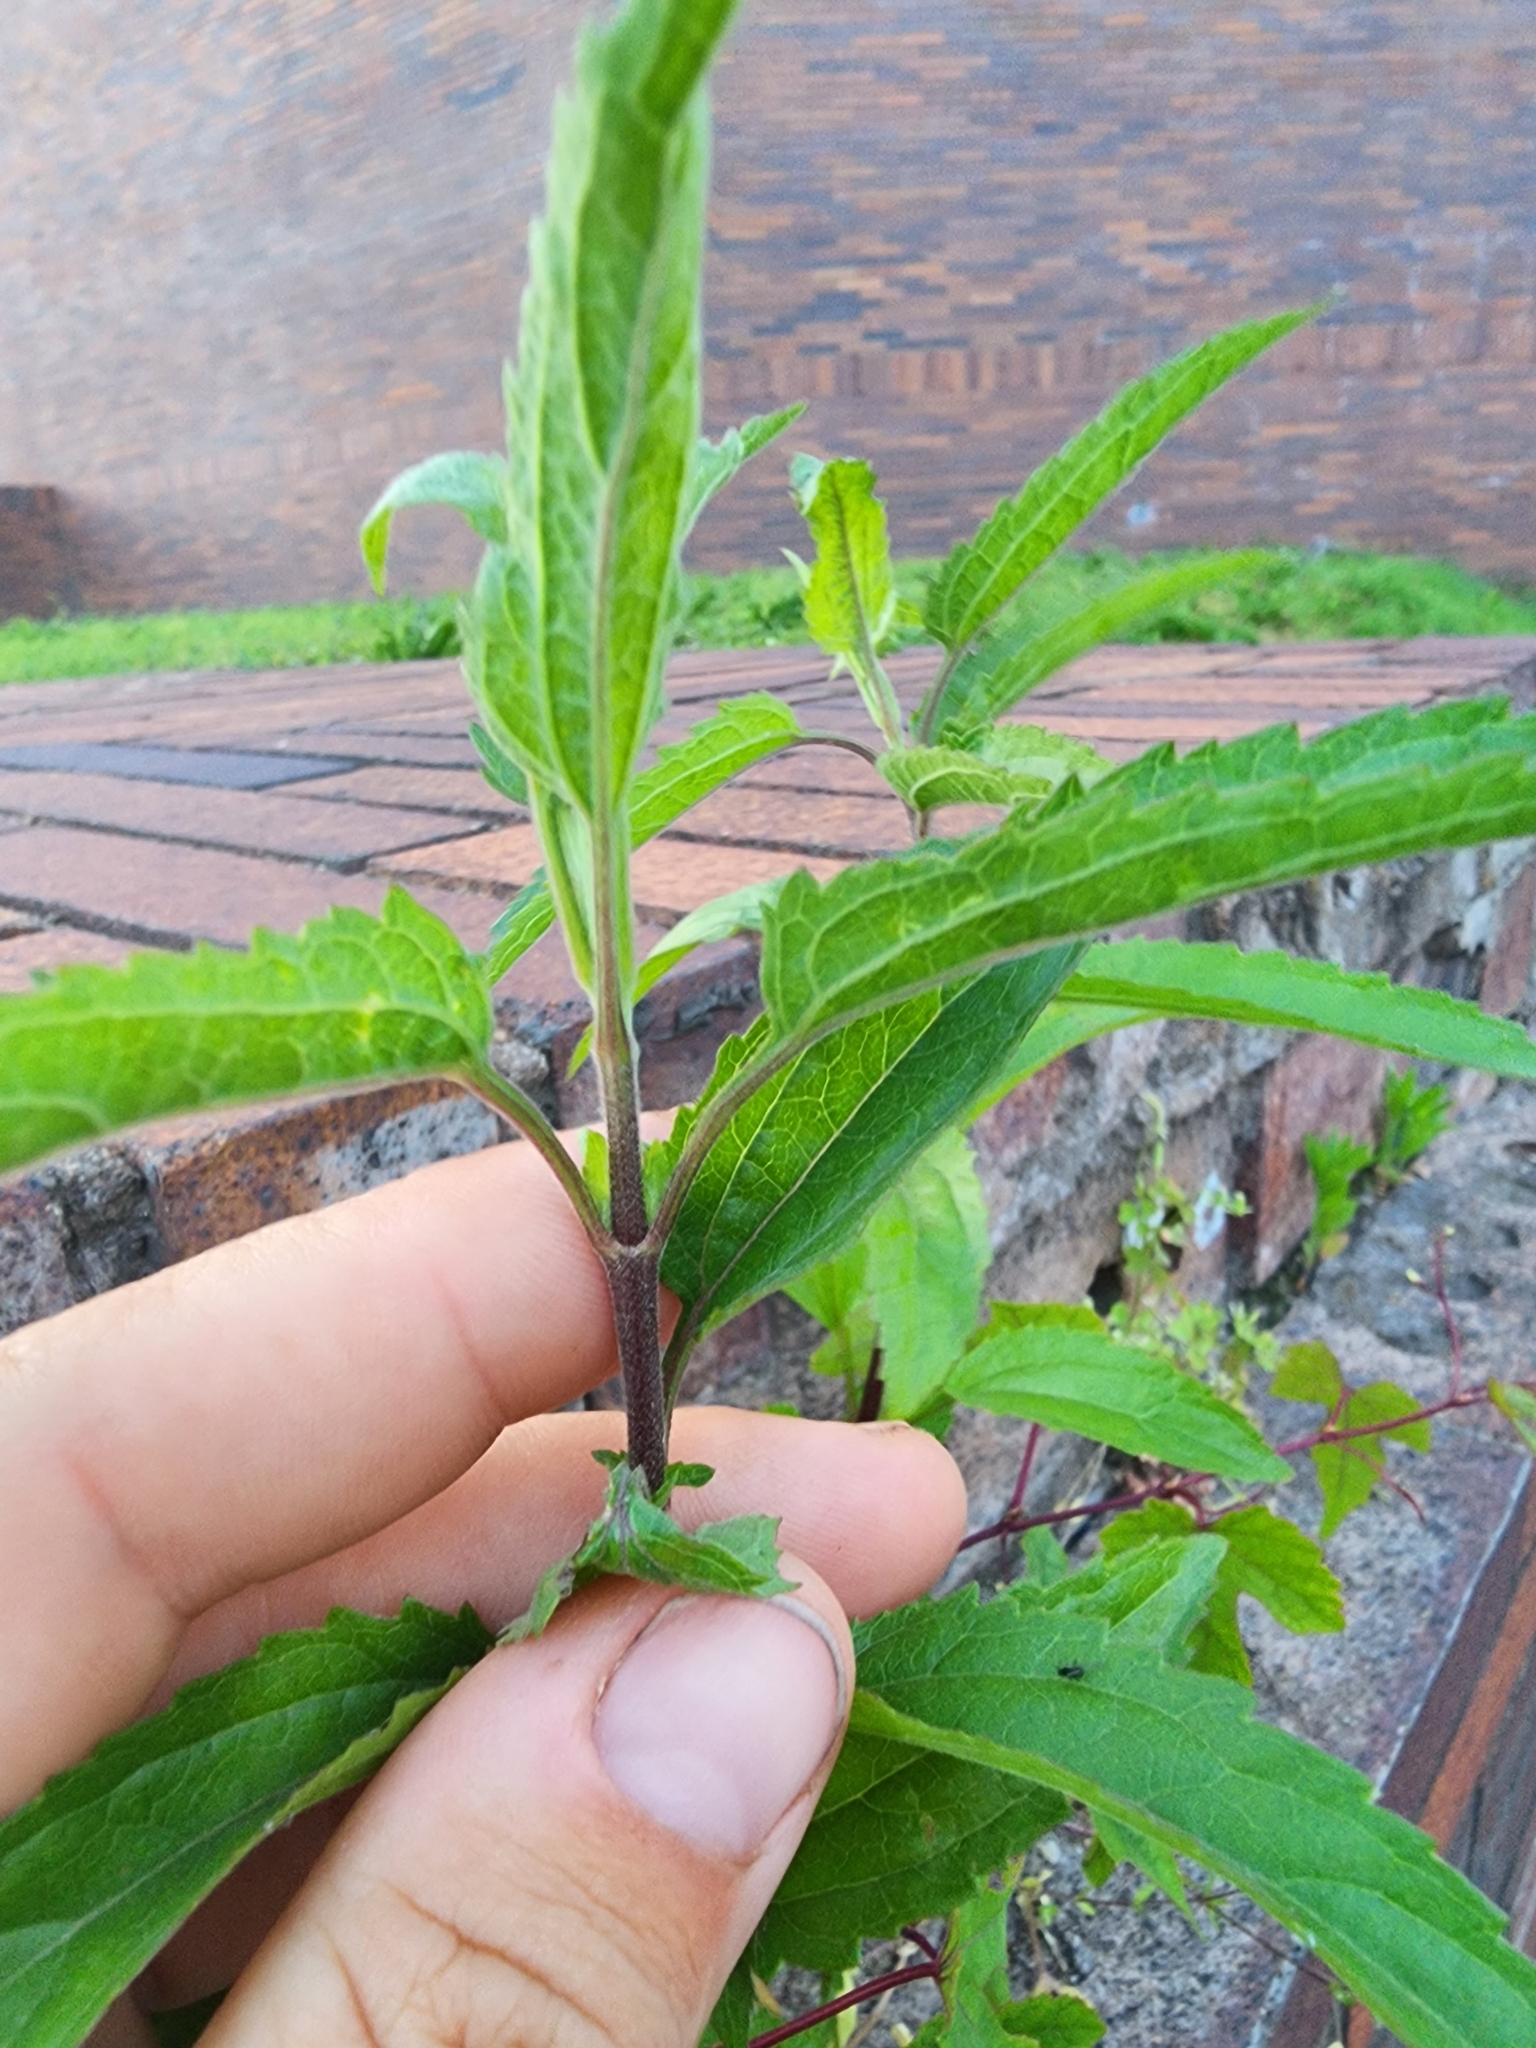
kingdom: Plantae
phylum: Tracheophyta
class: Magnoliopsida
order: Asterales
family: Asteraceae
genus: Eupatorium
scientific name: Eupatorium serotinum
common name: Late boneset
